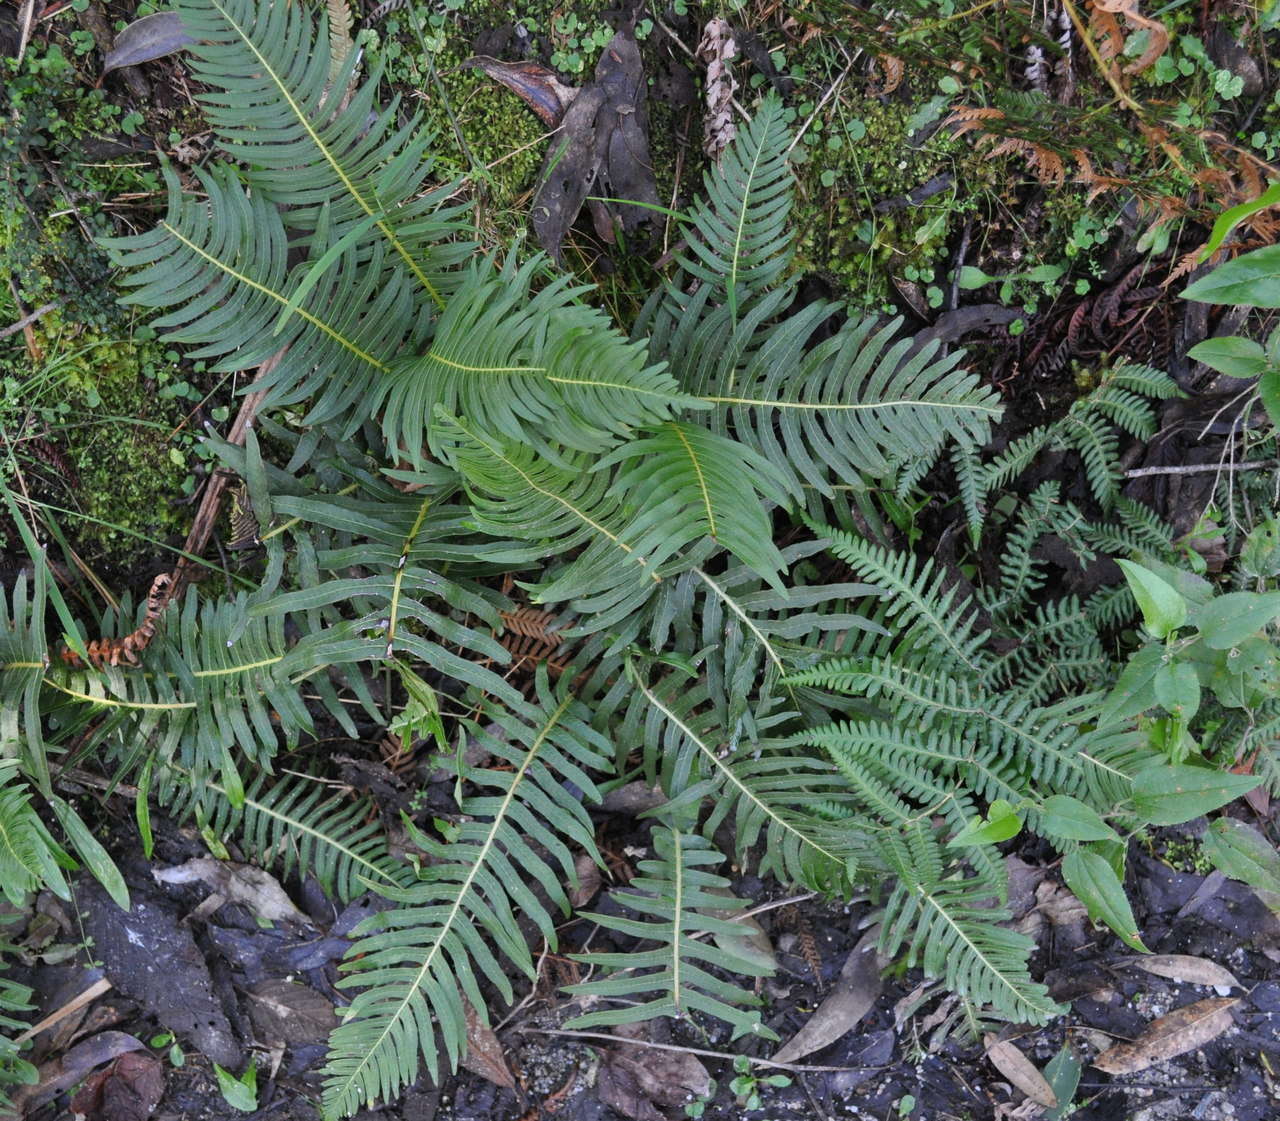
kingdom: Plantae
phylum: Tracheophyta
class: Polypodiopsida
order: Polypodiales
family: Blechnaceae
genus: Lomaria
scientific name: Lomaria nuda
